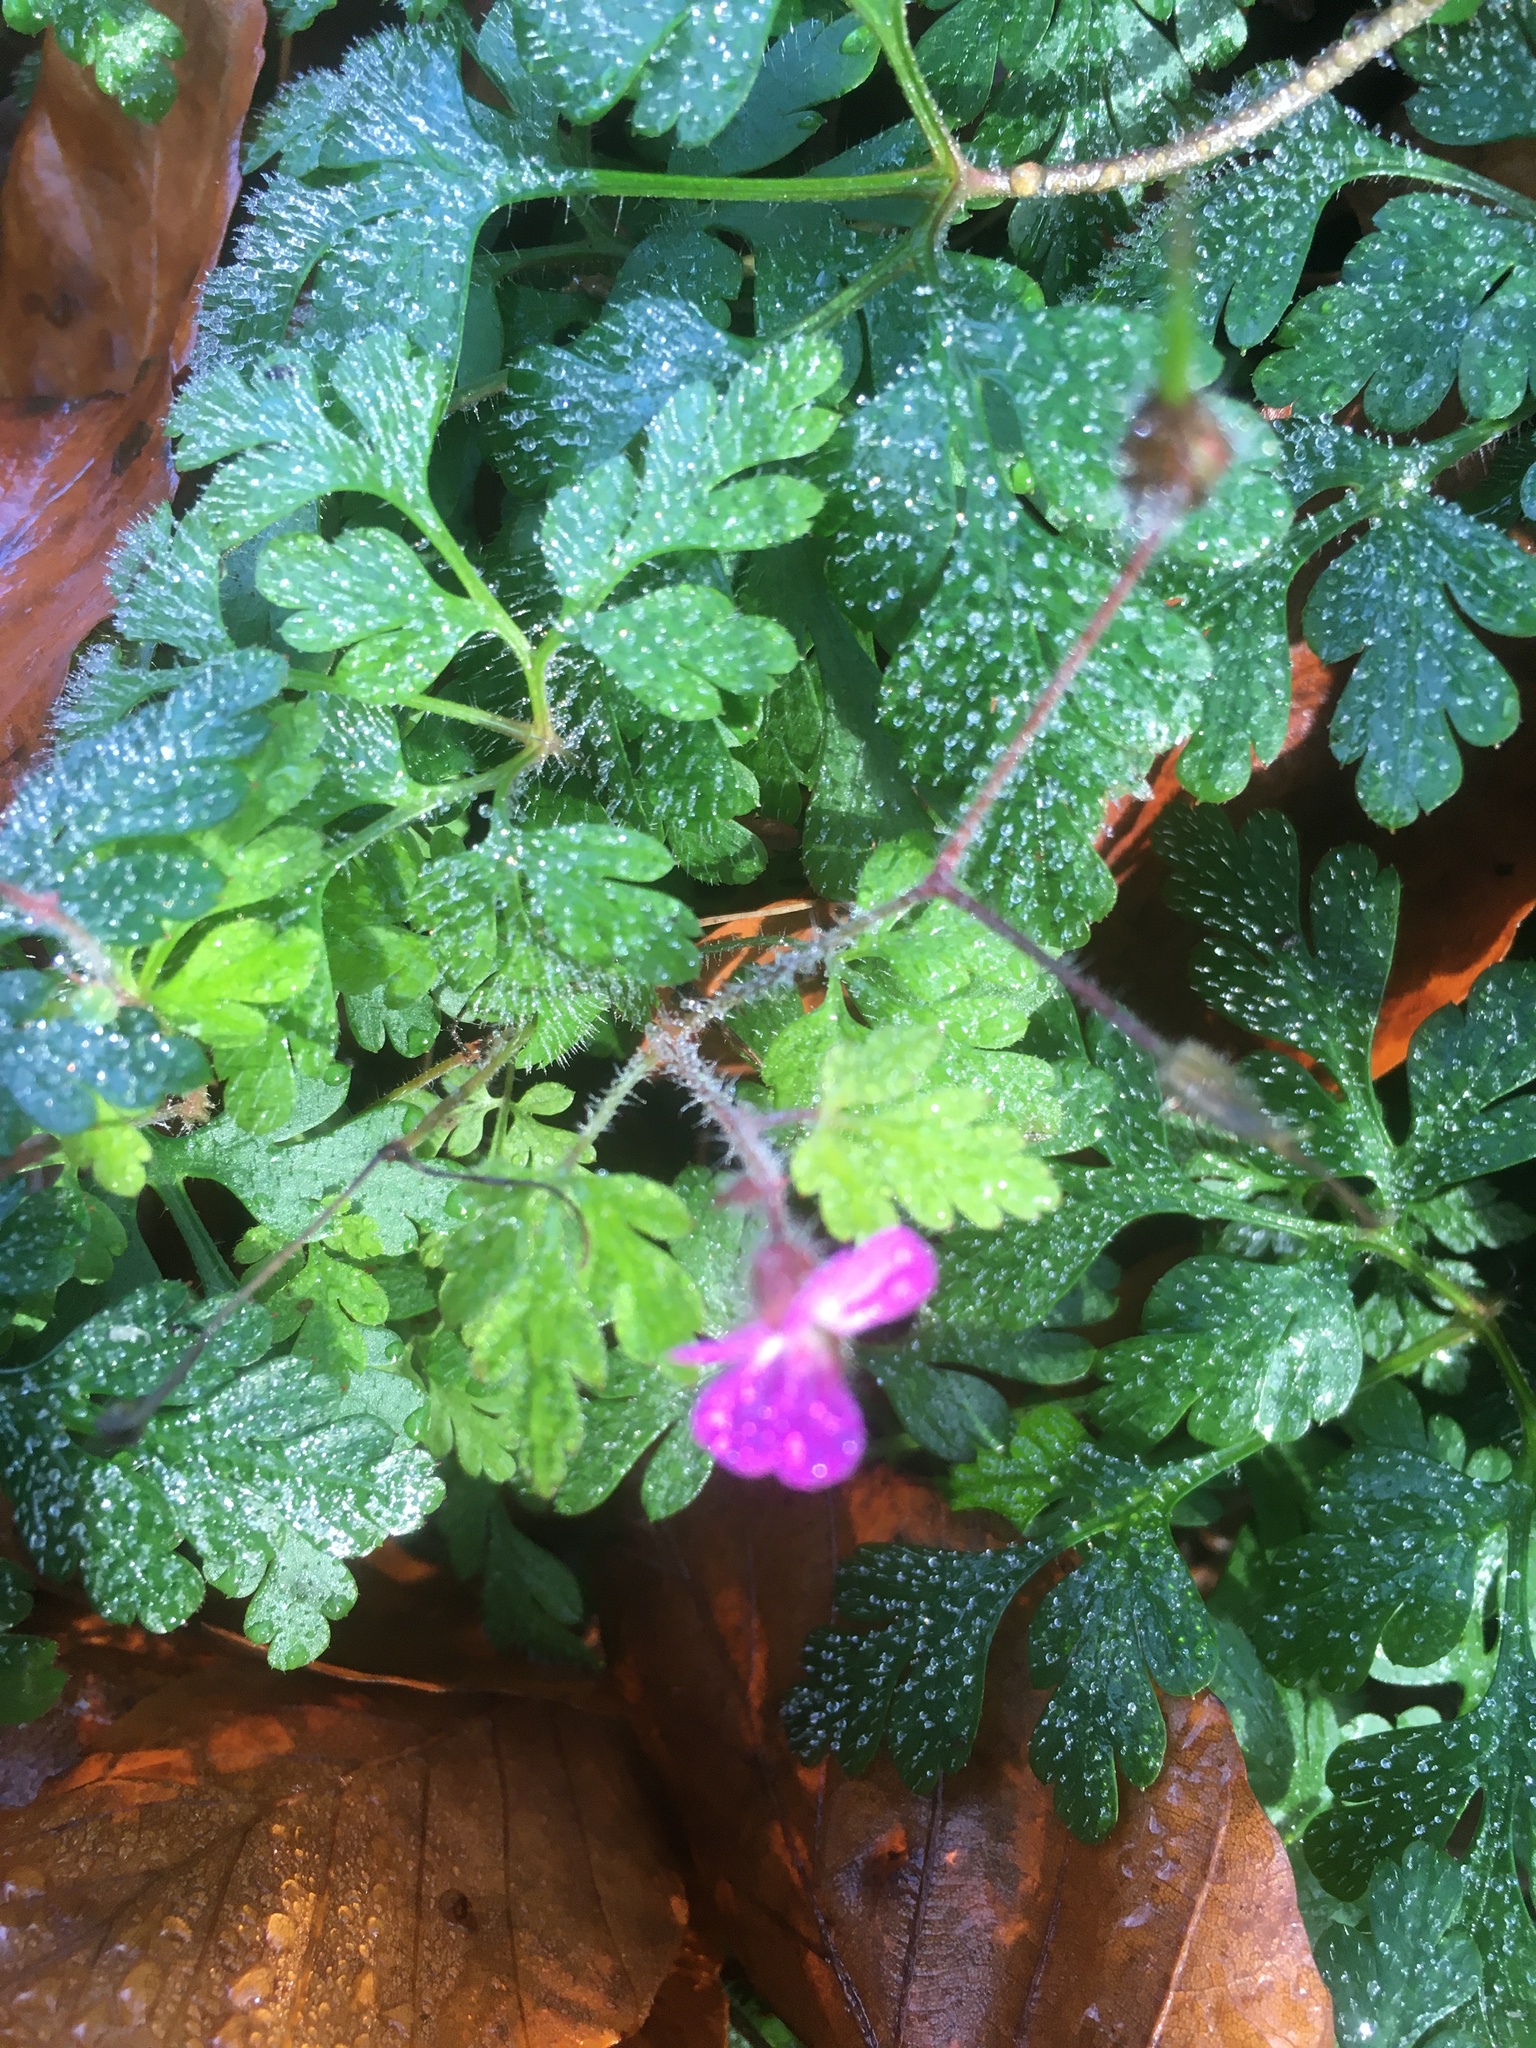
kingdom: Plantae
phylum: Tracheophyta
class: Magnoliopsida
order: Geraniales
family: Geraniaceae
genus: Geranium
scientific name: Geranium robertianum
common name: Herb-robert
